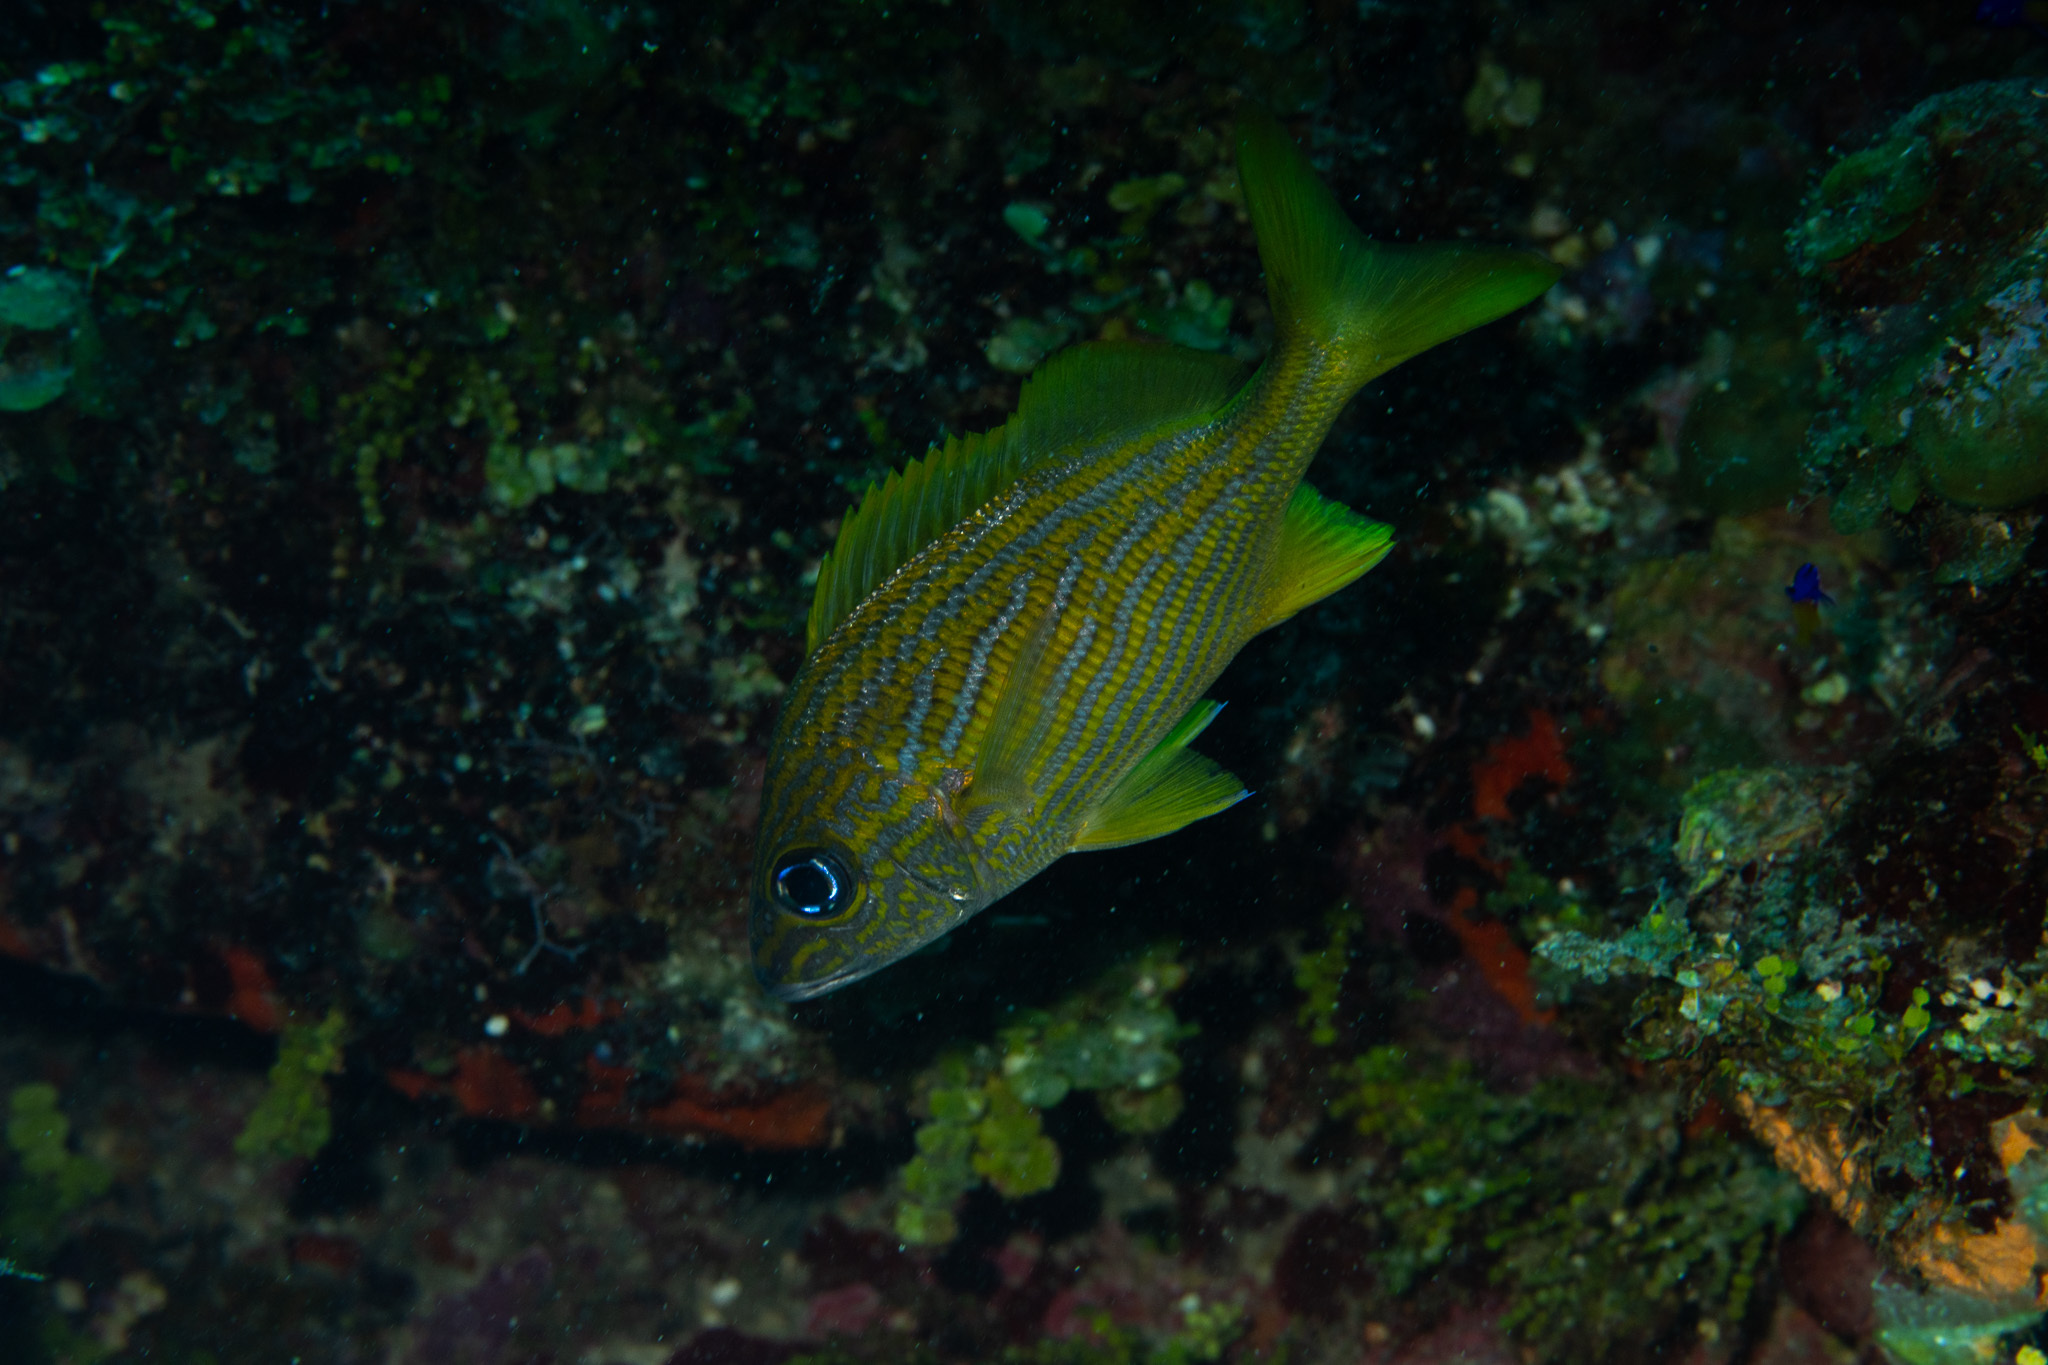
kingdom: Animalia
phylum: Chordata
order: Perciformes
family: Haemulidae
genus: Haemulon
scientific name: Haemulon flavolineatum
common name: French grunt
